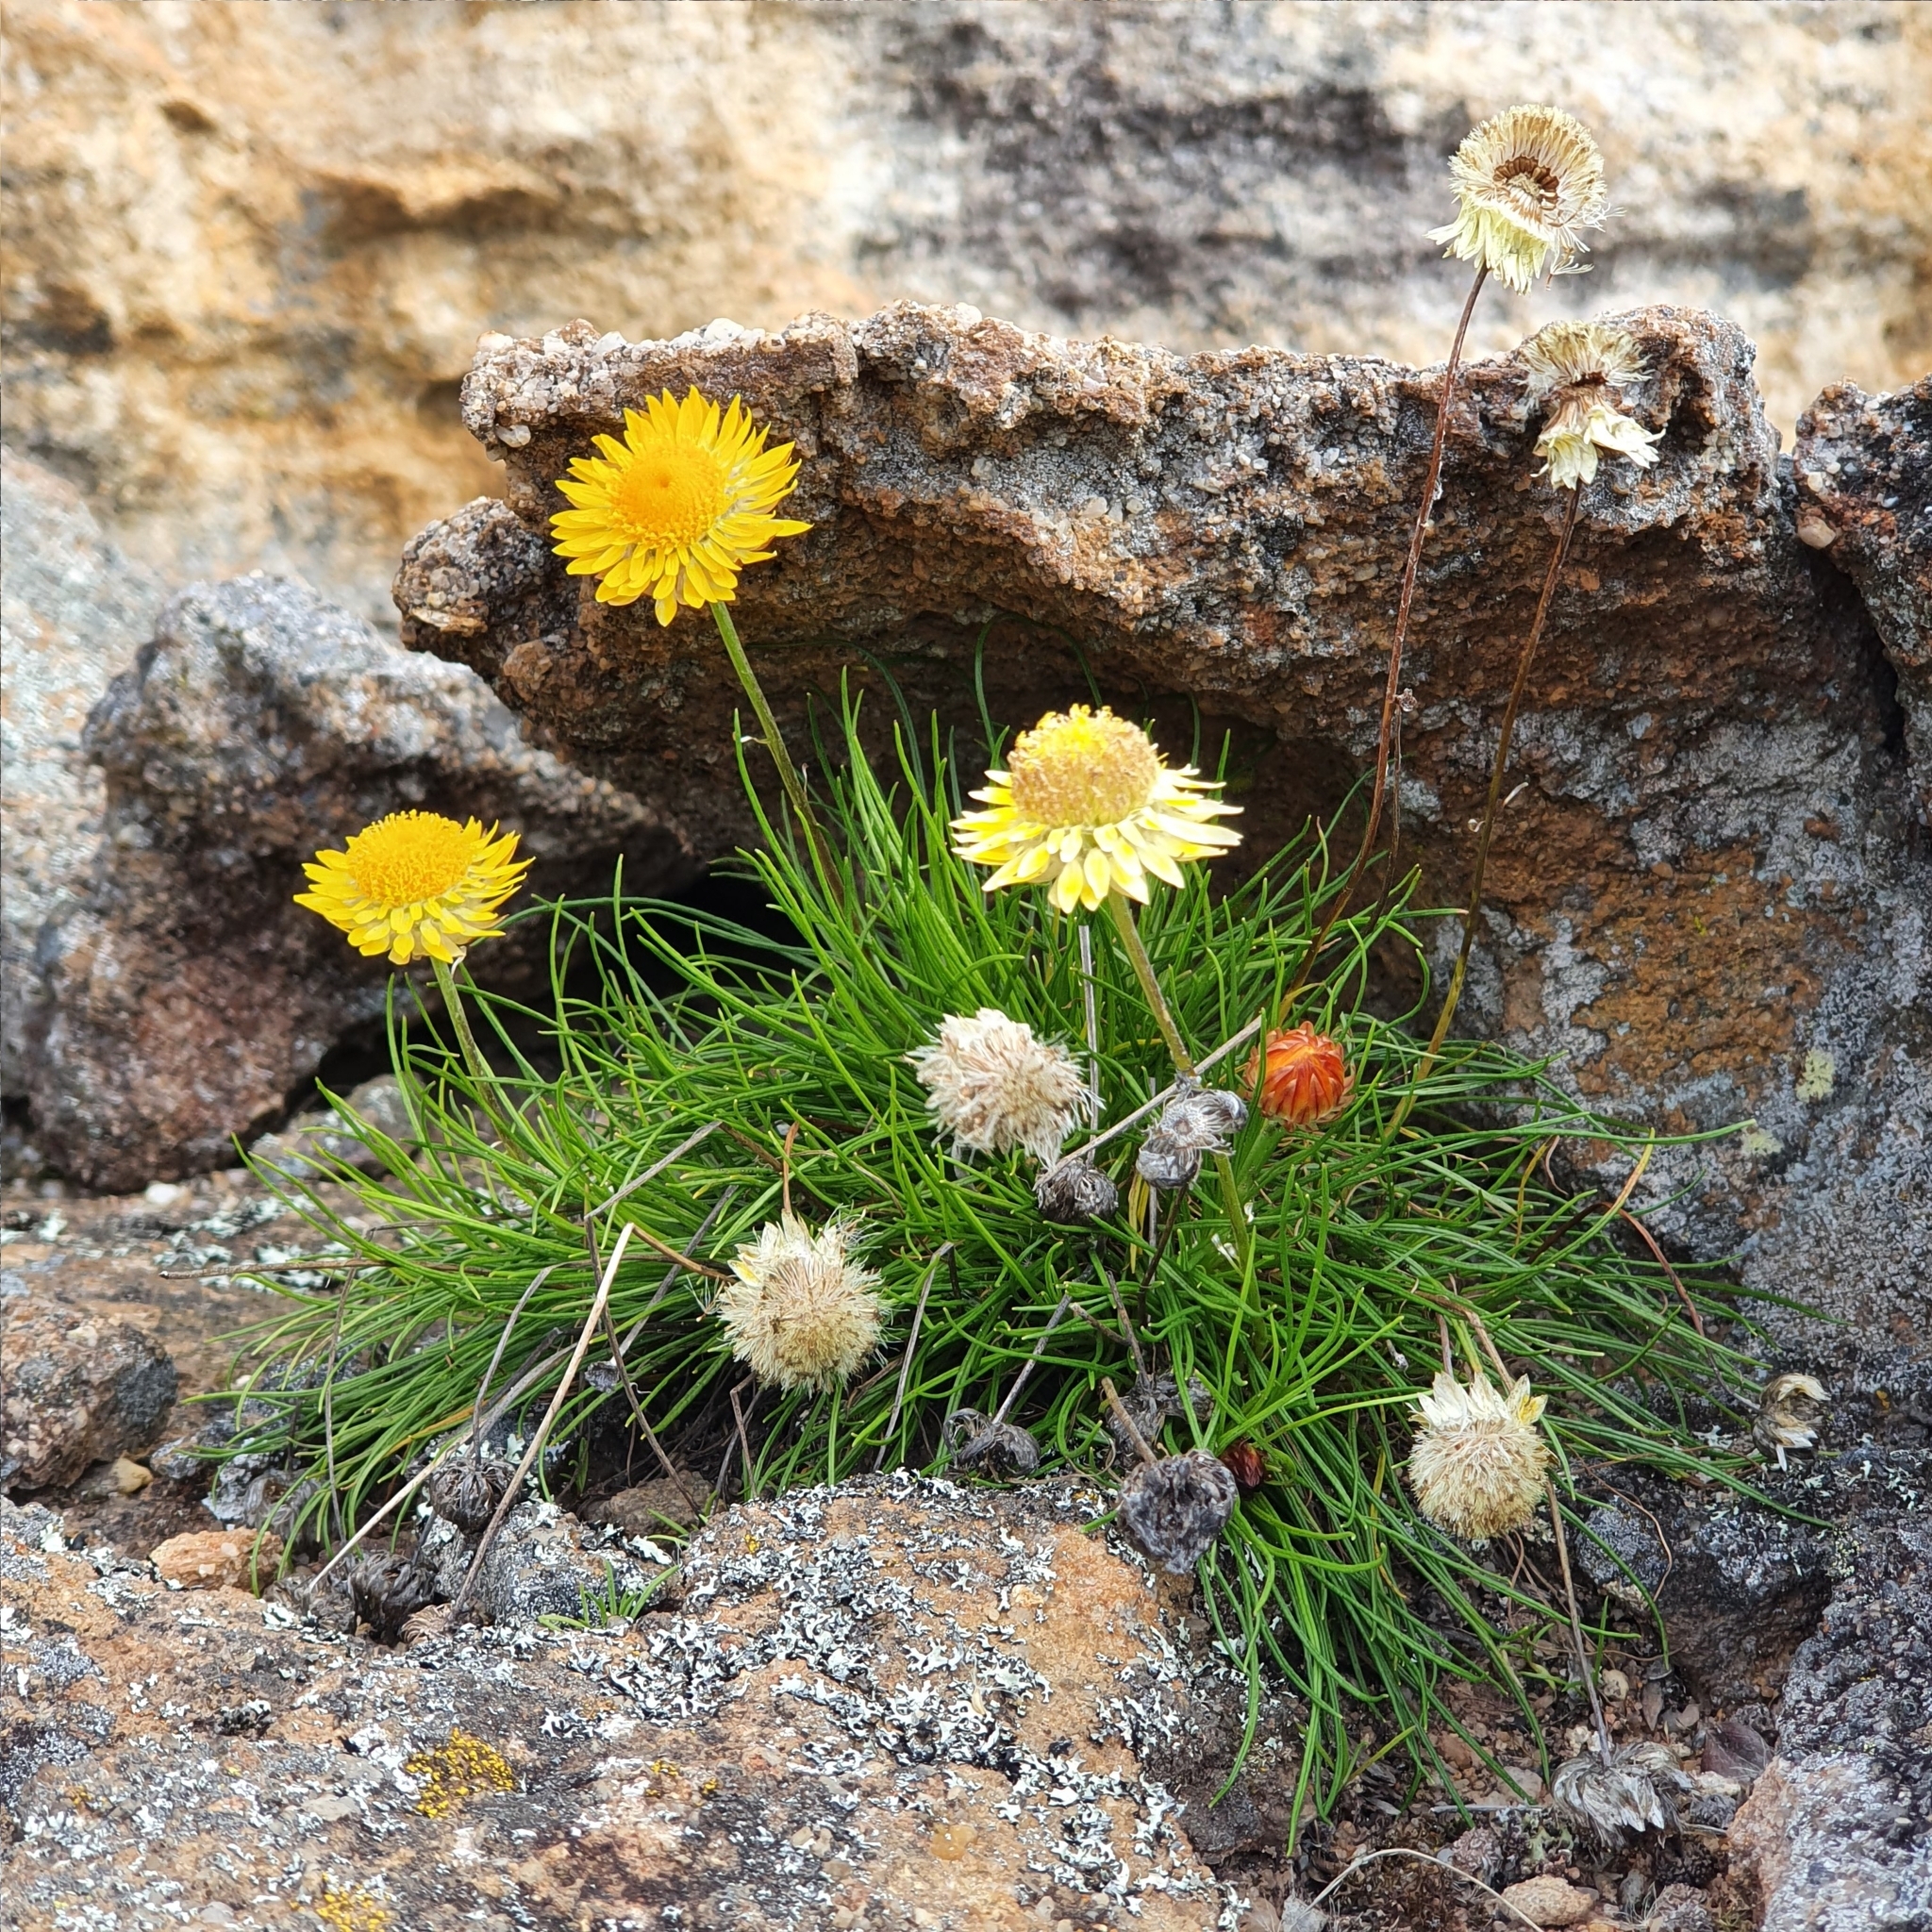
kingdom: Plantae
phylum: Tracheophyta
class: Magnoliopsida
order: Asterales
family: Asteraceae
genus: Leucochrysum
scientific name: Leucochrysum graminifolium
